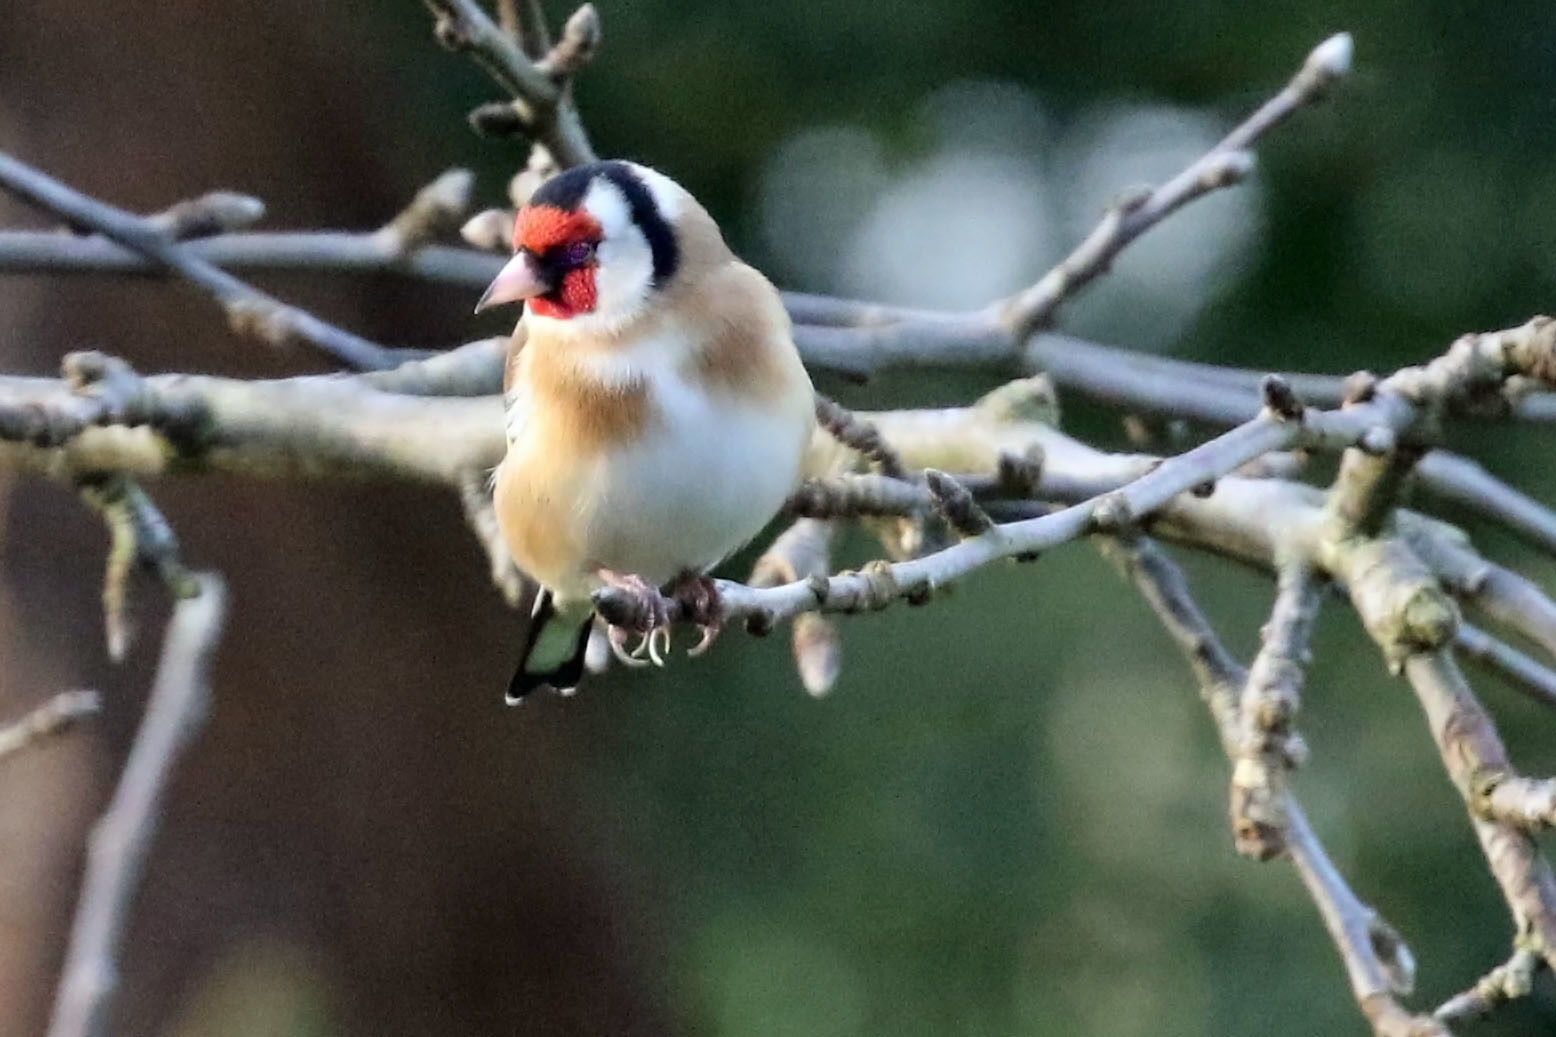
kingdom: Animalia
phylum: Chordata
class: Aves
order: Passeriformes
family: Fringillidae
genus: Carduelis
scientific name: Carduelis carduelis
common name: European goldfinch
